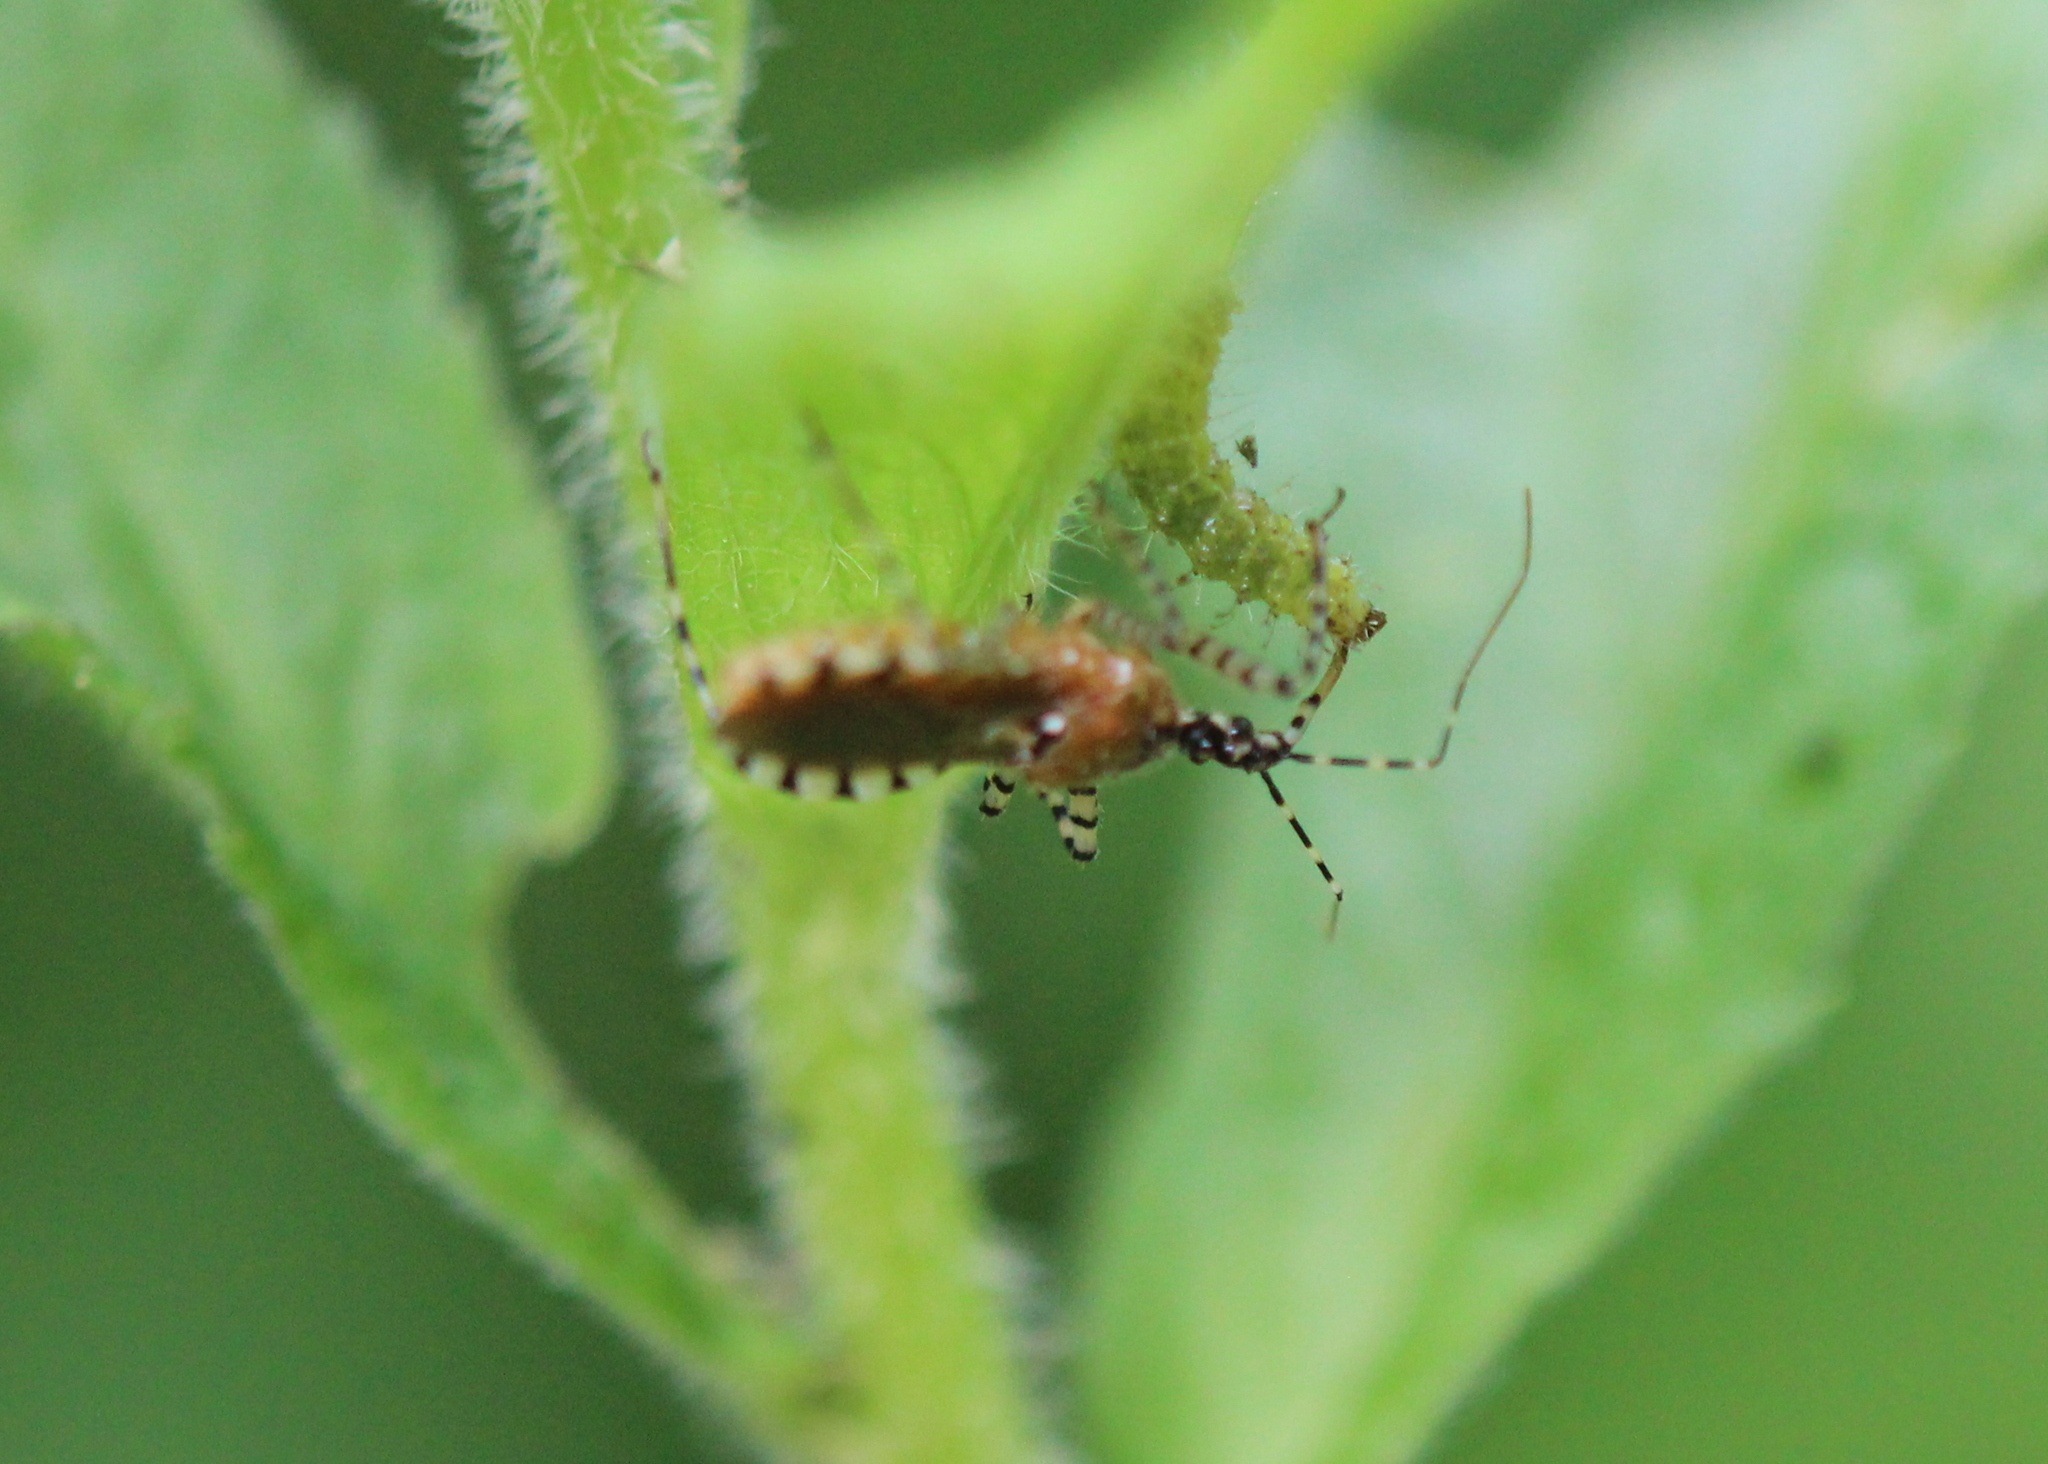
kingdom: Animalia
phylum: Arthropoda
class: Insecta
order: Hemiptera
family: Reduviidae
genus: Pselliopus
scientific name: Pselliopus cinctus
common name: Ringed assassin bug
